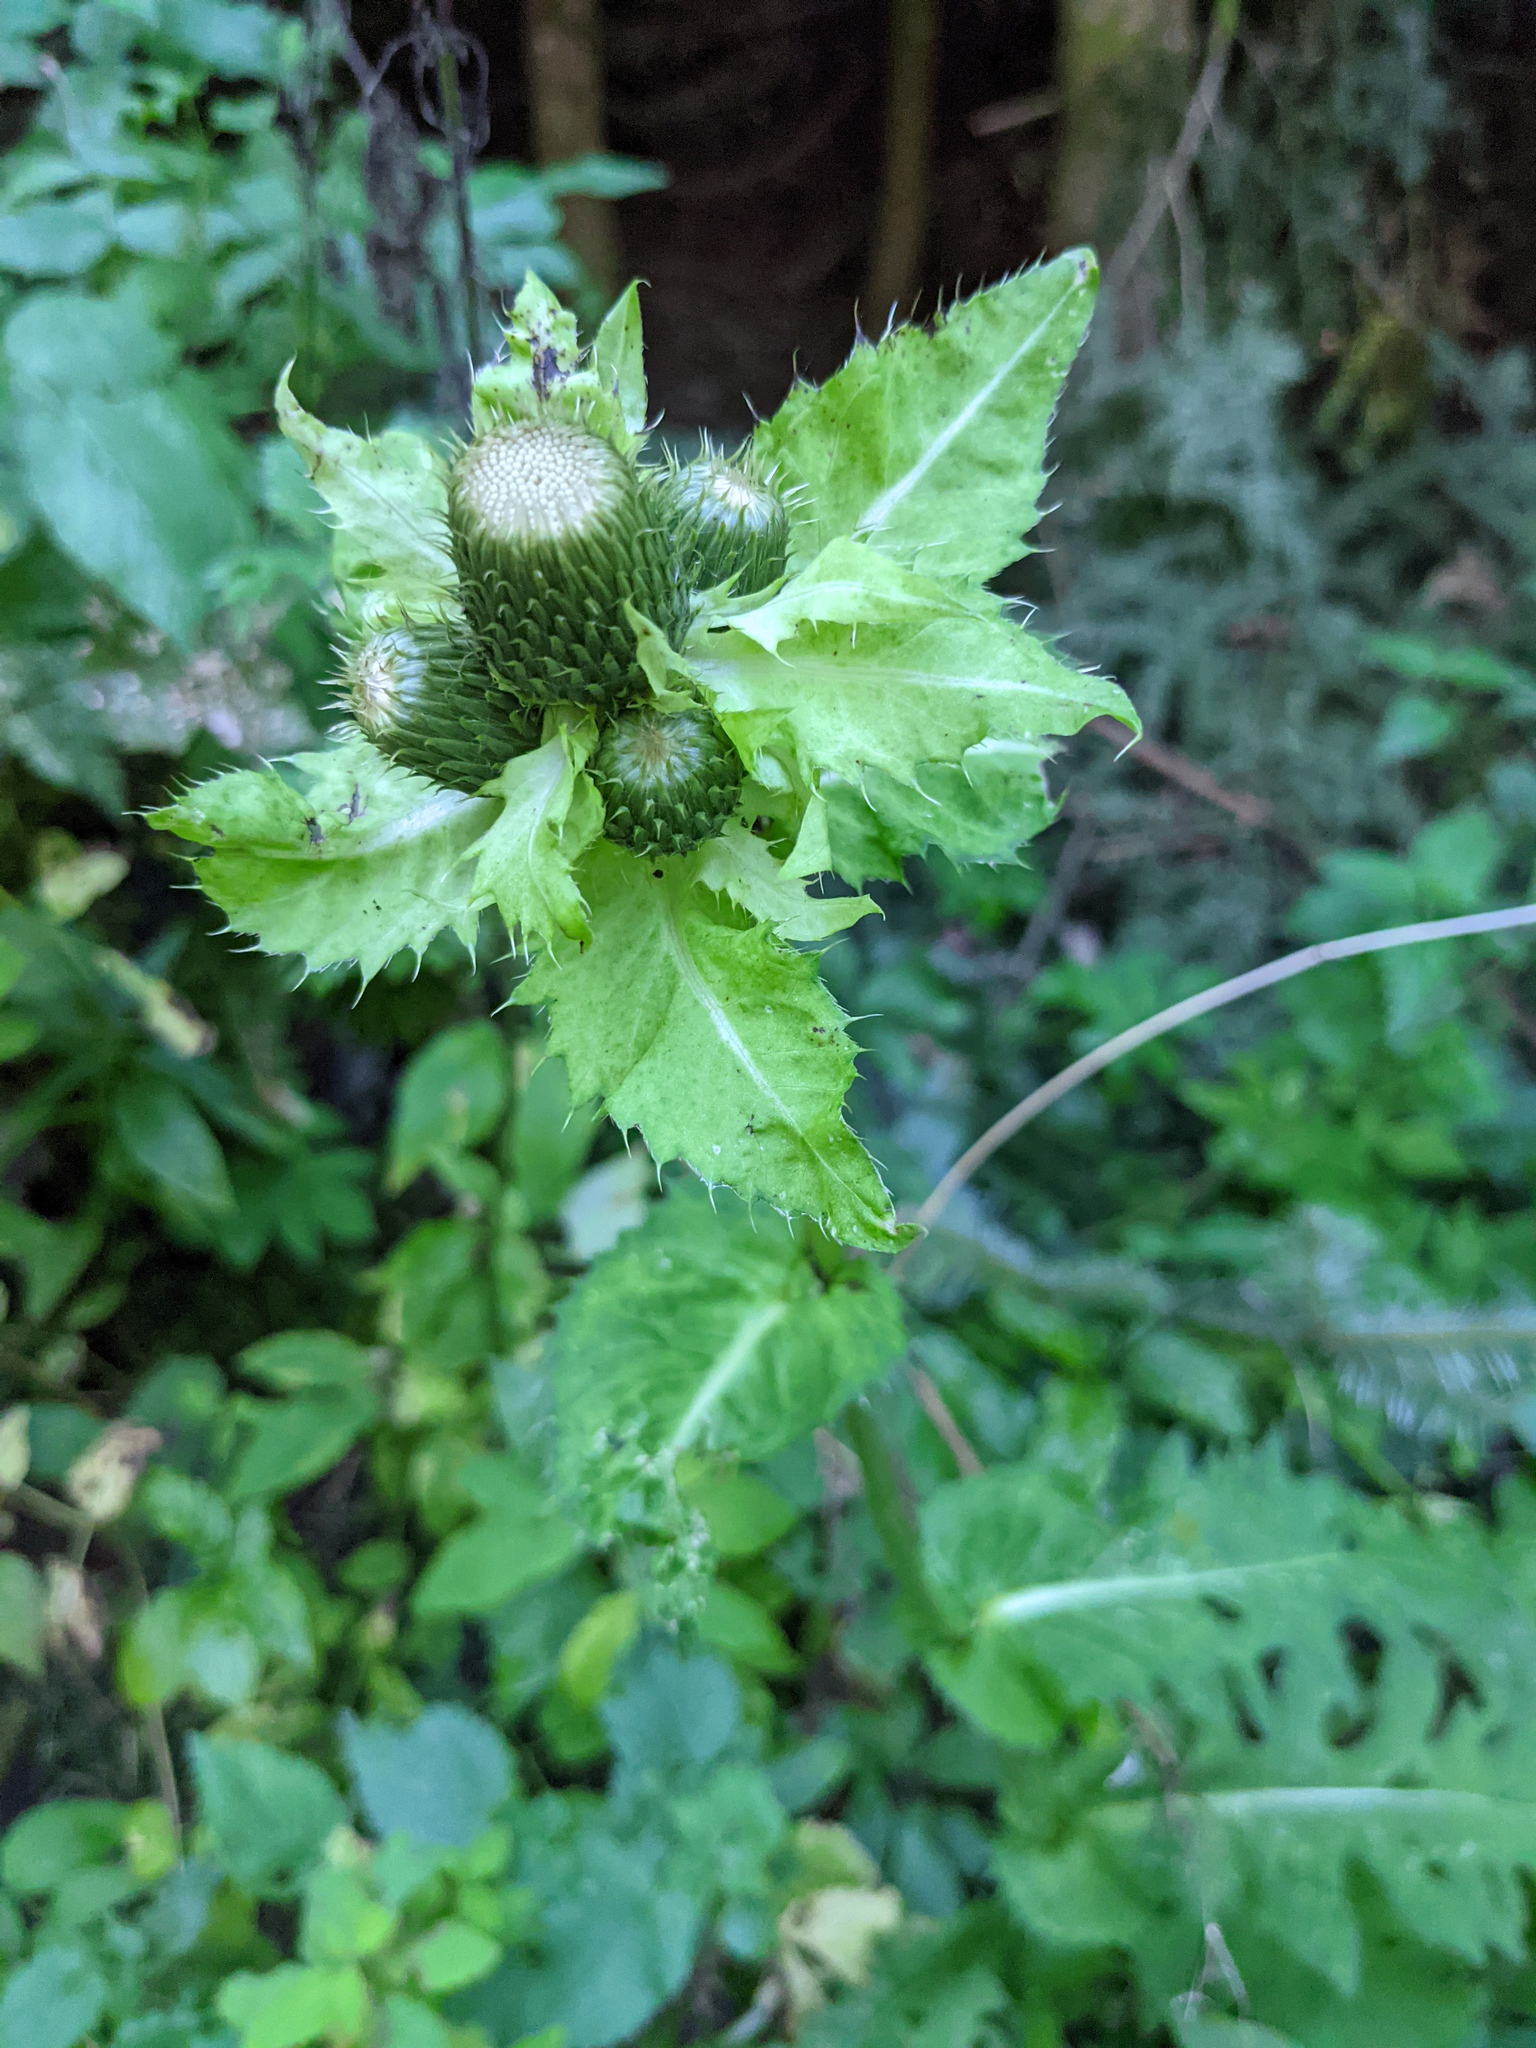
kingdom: Plantae
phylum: Tracheophyta
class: Magnoliopsida
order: Asterales
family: Asteraceae
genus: Cirsium
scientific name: Cirsium oleraceum
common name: Cabbage thistle
